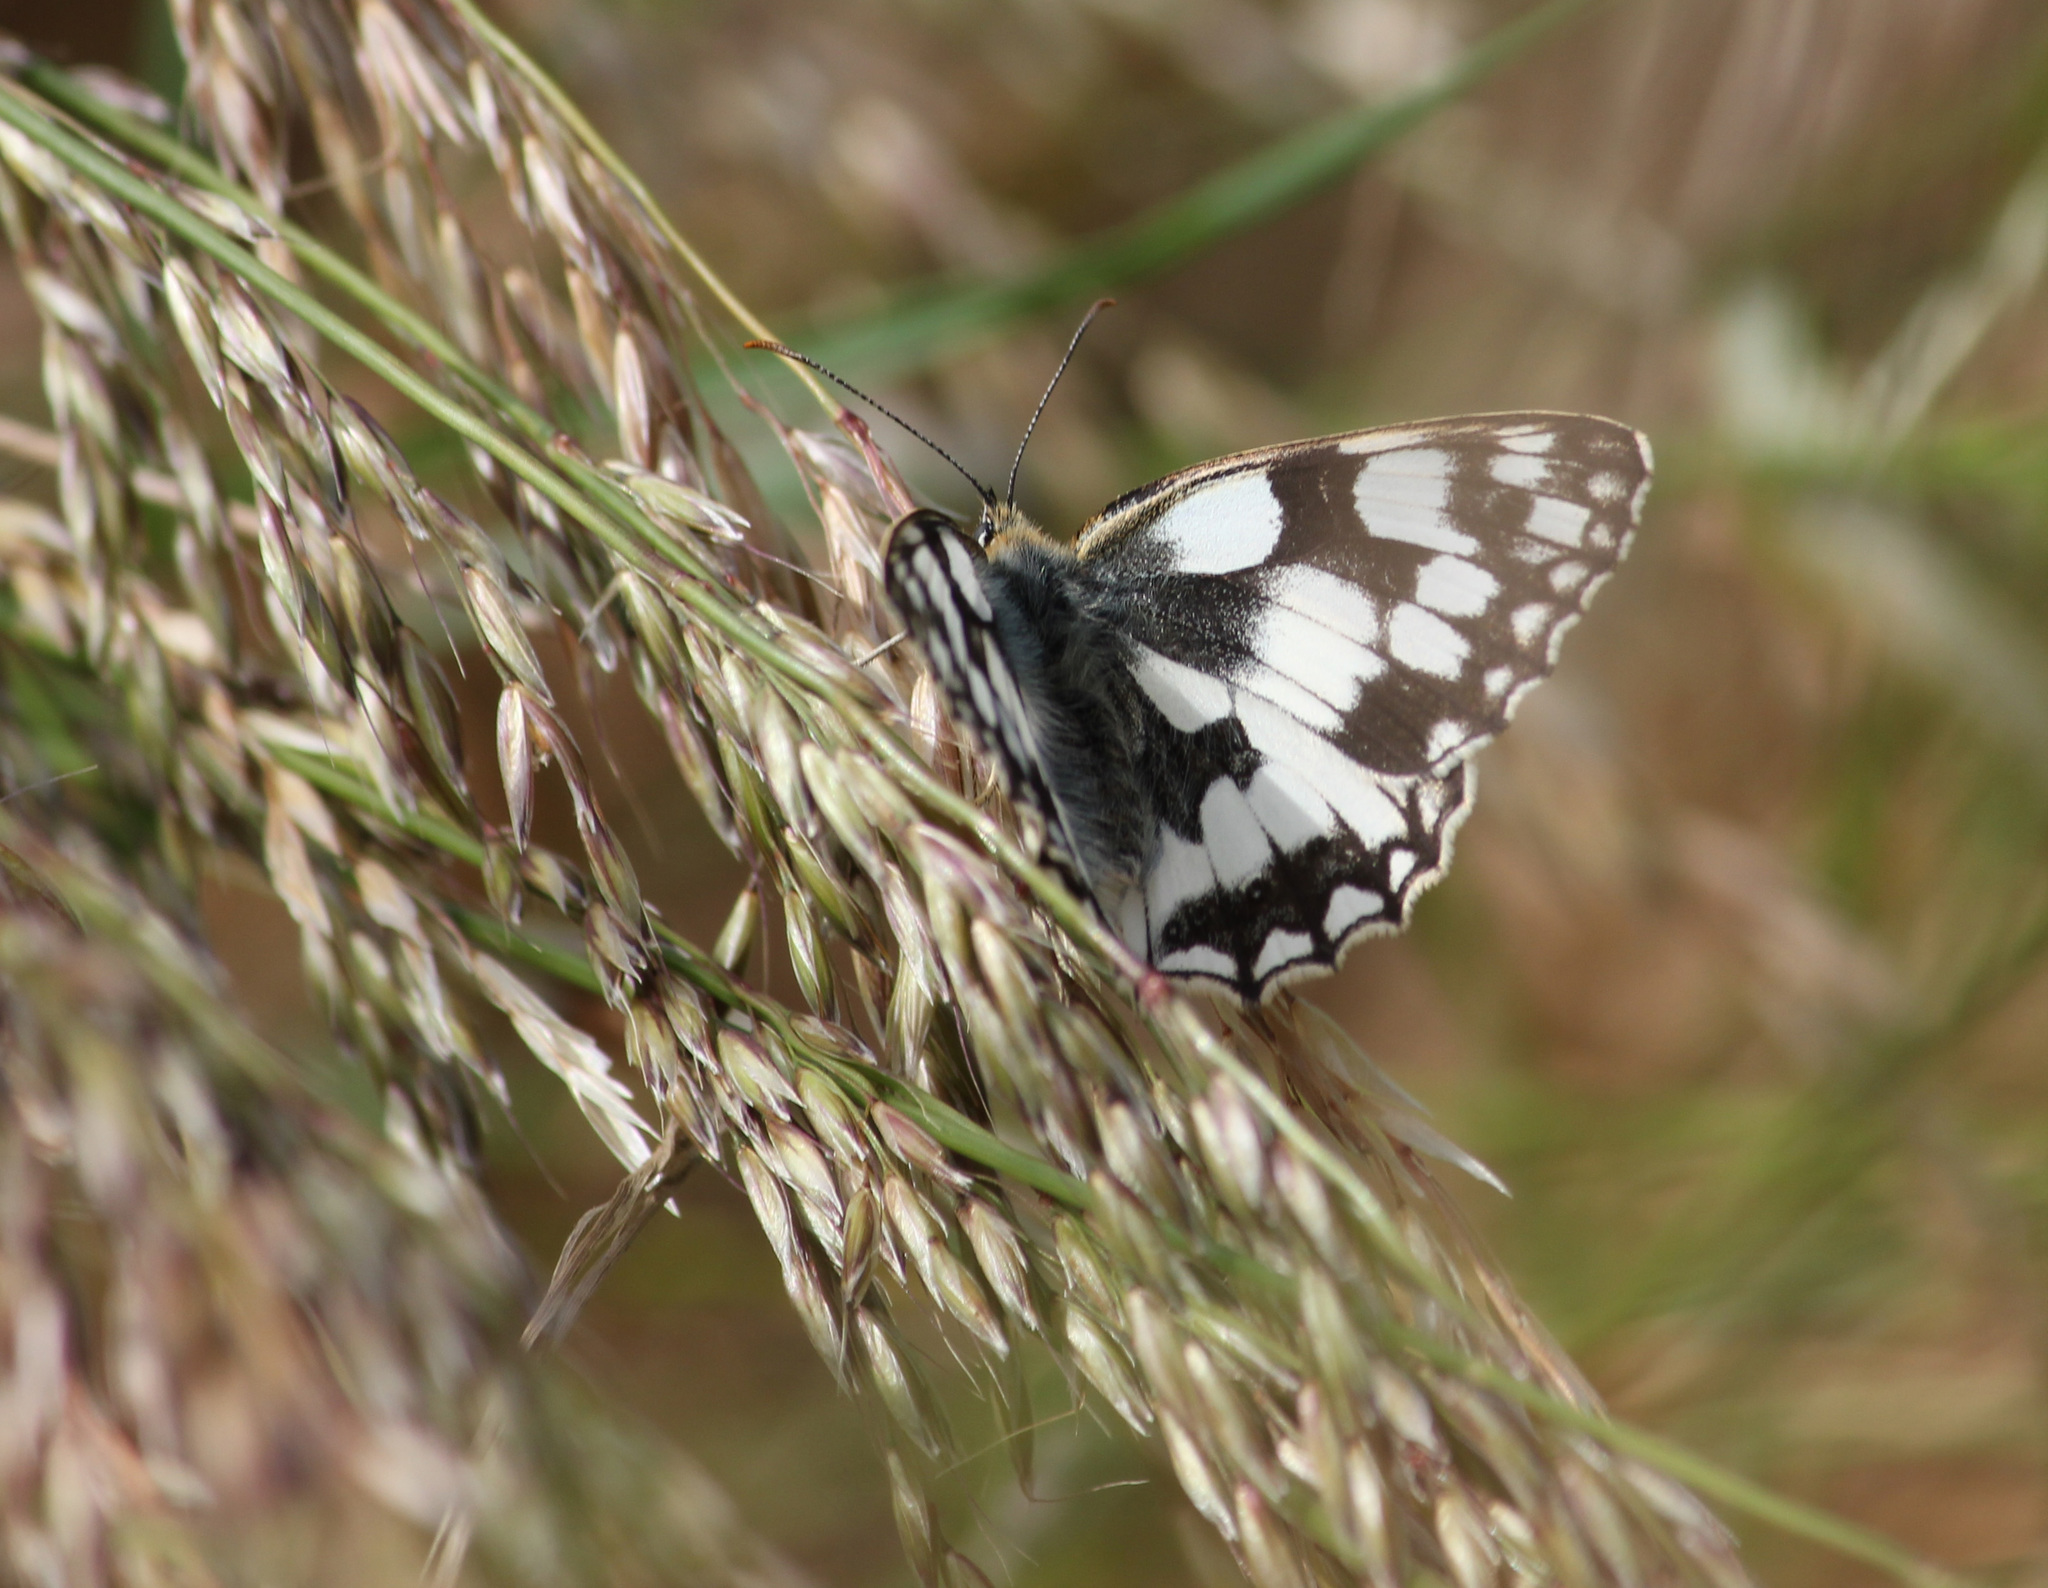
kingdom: Animalia
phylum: Arthropoda
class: Insecta
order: Lepidoptera
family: Nymphalidae
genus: Melanargia
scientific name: Melanargia galathea
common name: Marbled white
